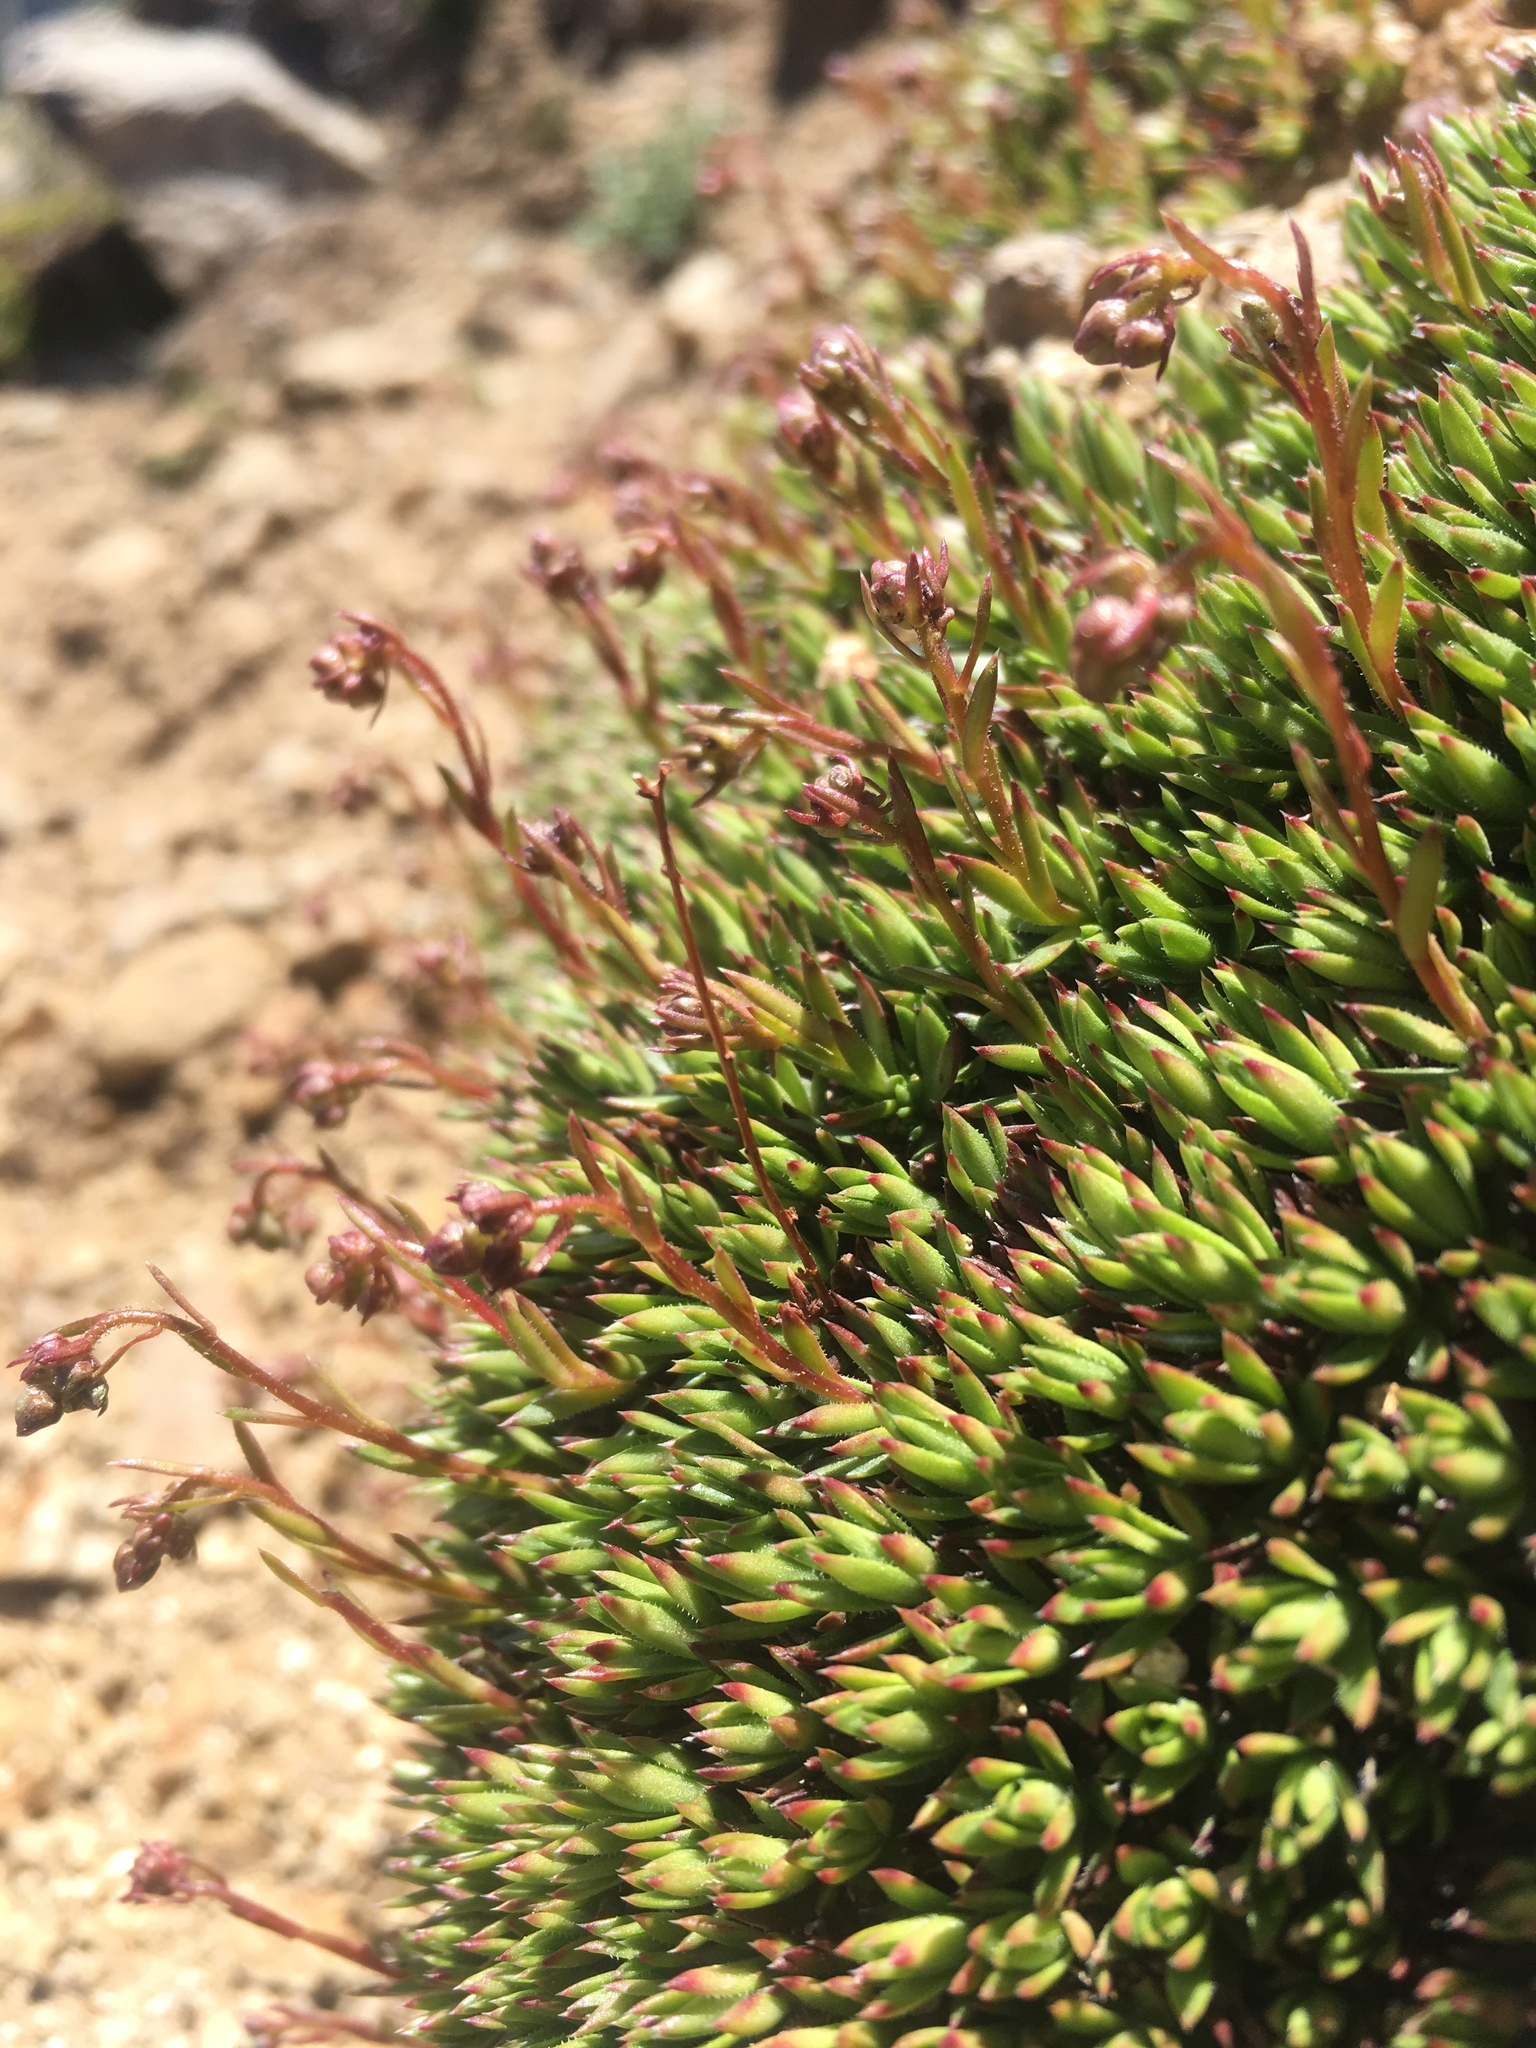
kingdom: Plantae
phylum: Tracheophyta
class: Magnoliopsida
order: Saxifragales
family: Saxifragaceae
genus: Saxifraga
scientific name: Saxifraga bronchialis
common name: Matted saxifrage
